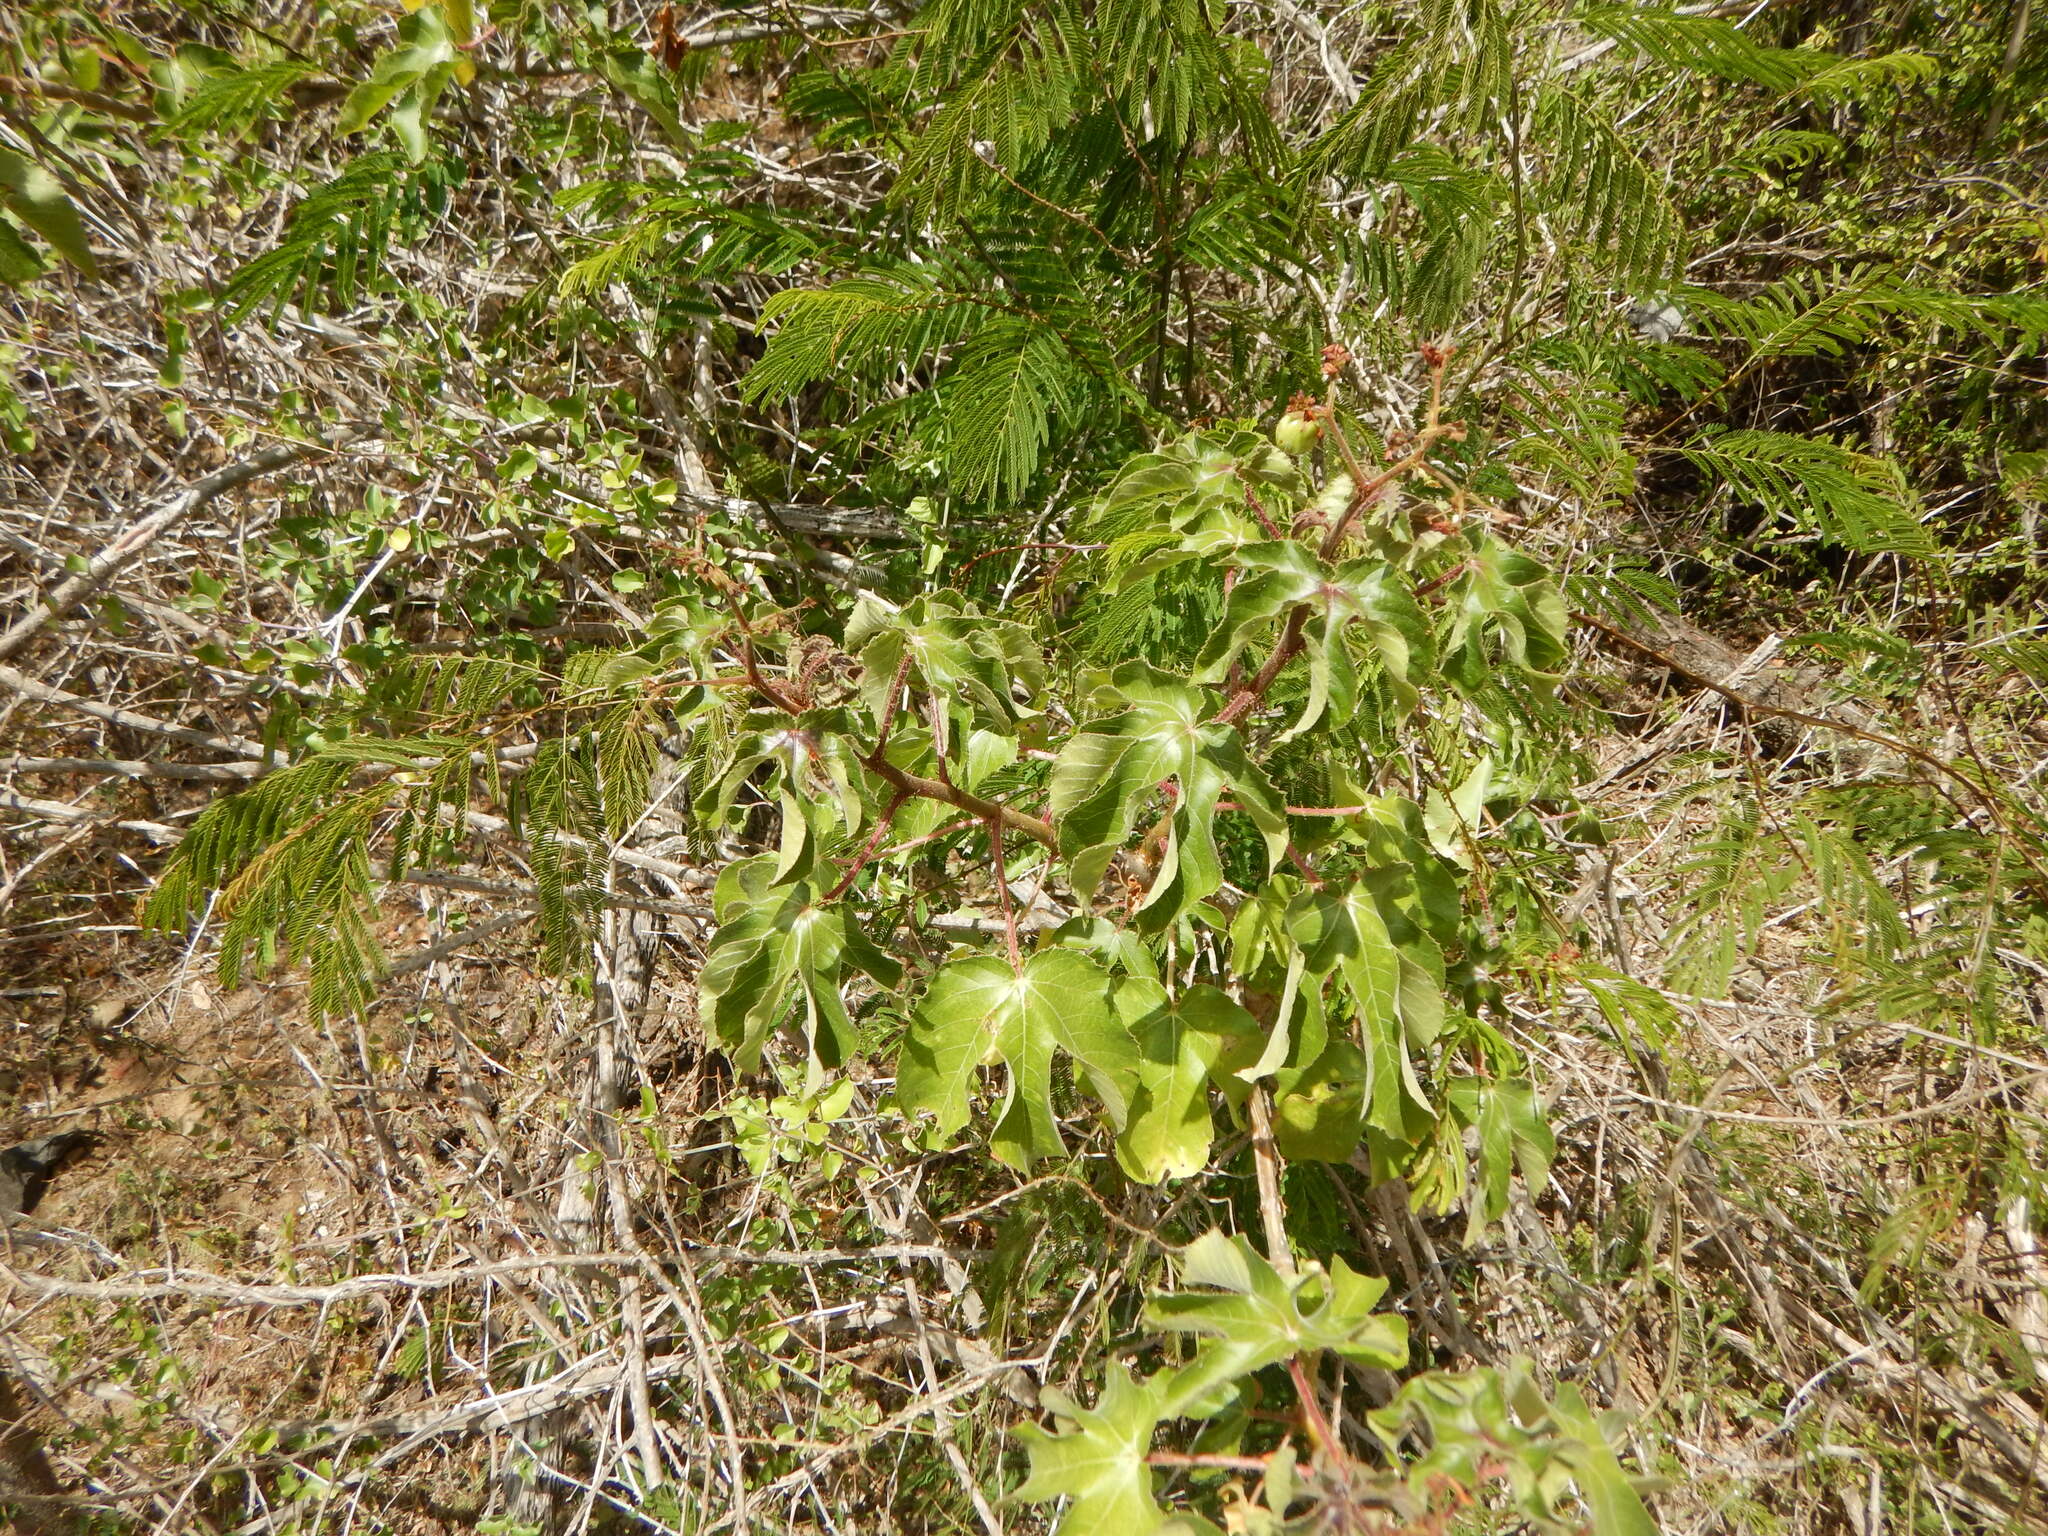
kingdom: Plantae
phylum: Tracheophyta
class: Magnoliopsida
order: Malpighiales
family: Euphorbiaceae
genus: Jatropha
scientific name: Jatropha gossypiifolia
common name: Bellyache bush
